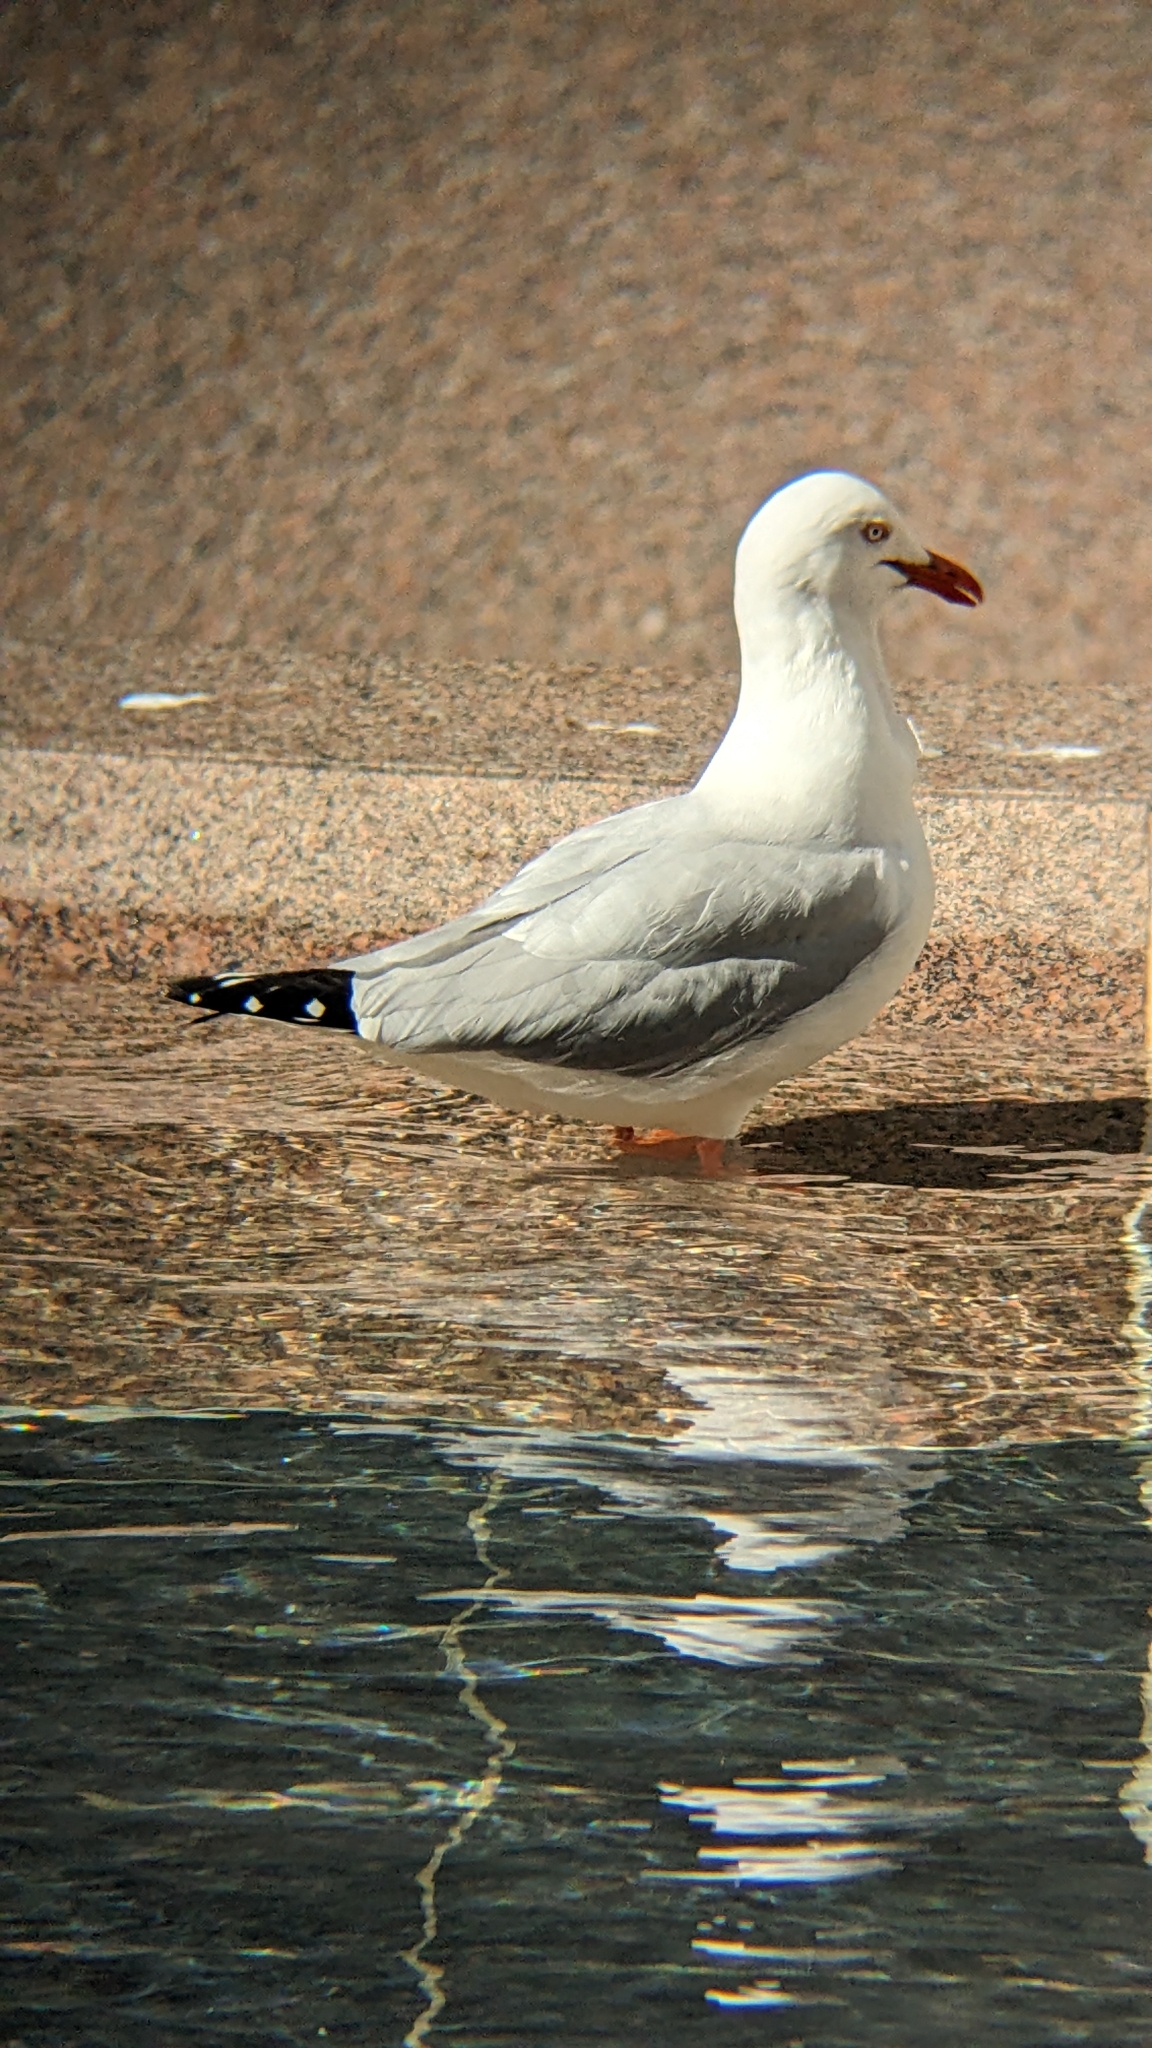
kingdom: Animalia
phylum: Chordata
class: Aves
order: Charadriiformes
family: Laridae
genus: Chroicocephalus
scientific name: Chroicocephalus novaehollandiae
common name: Silver gull
